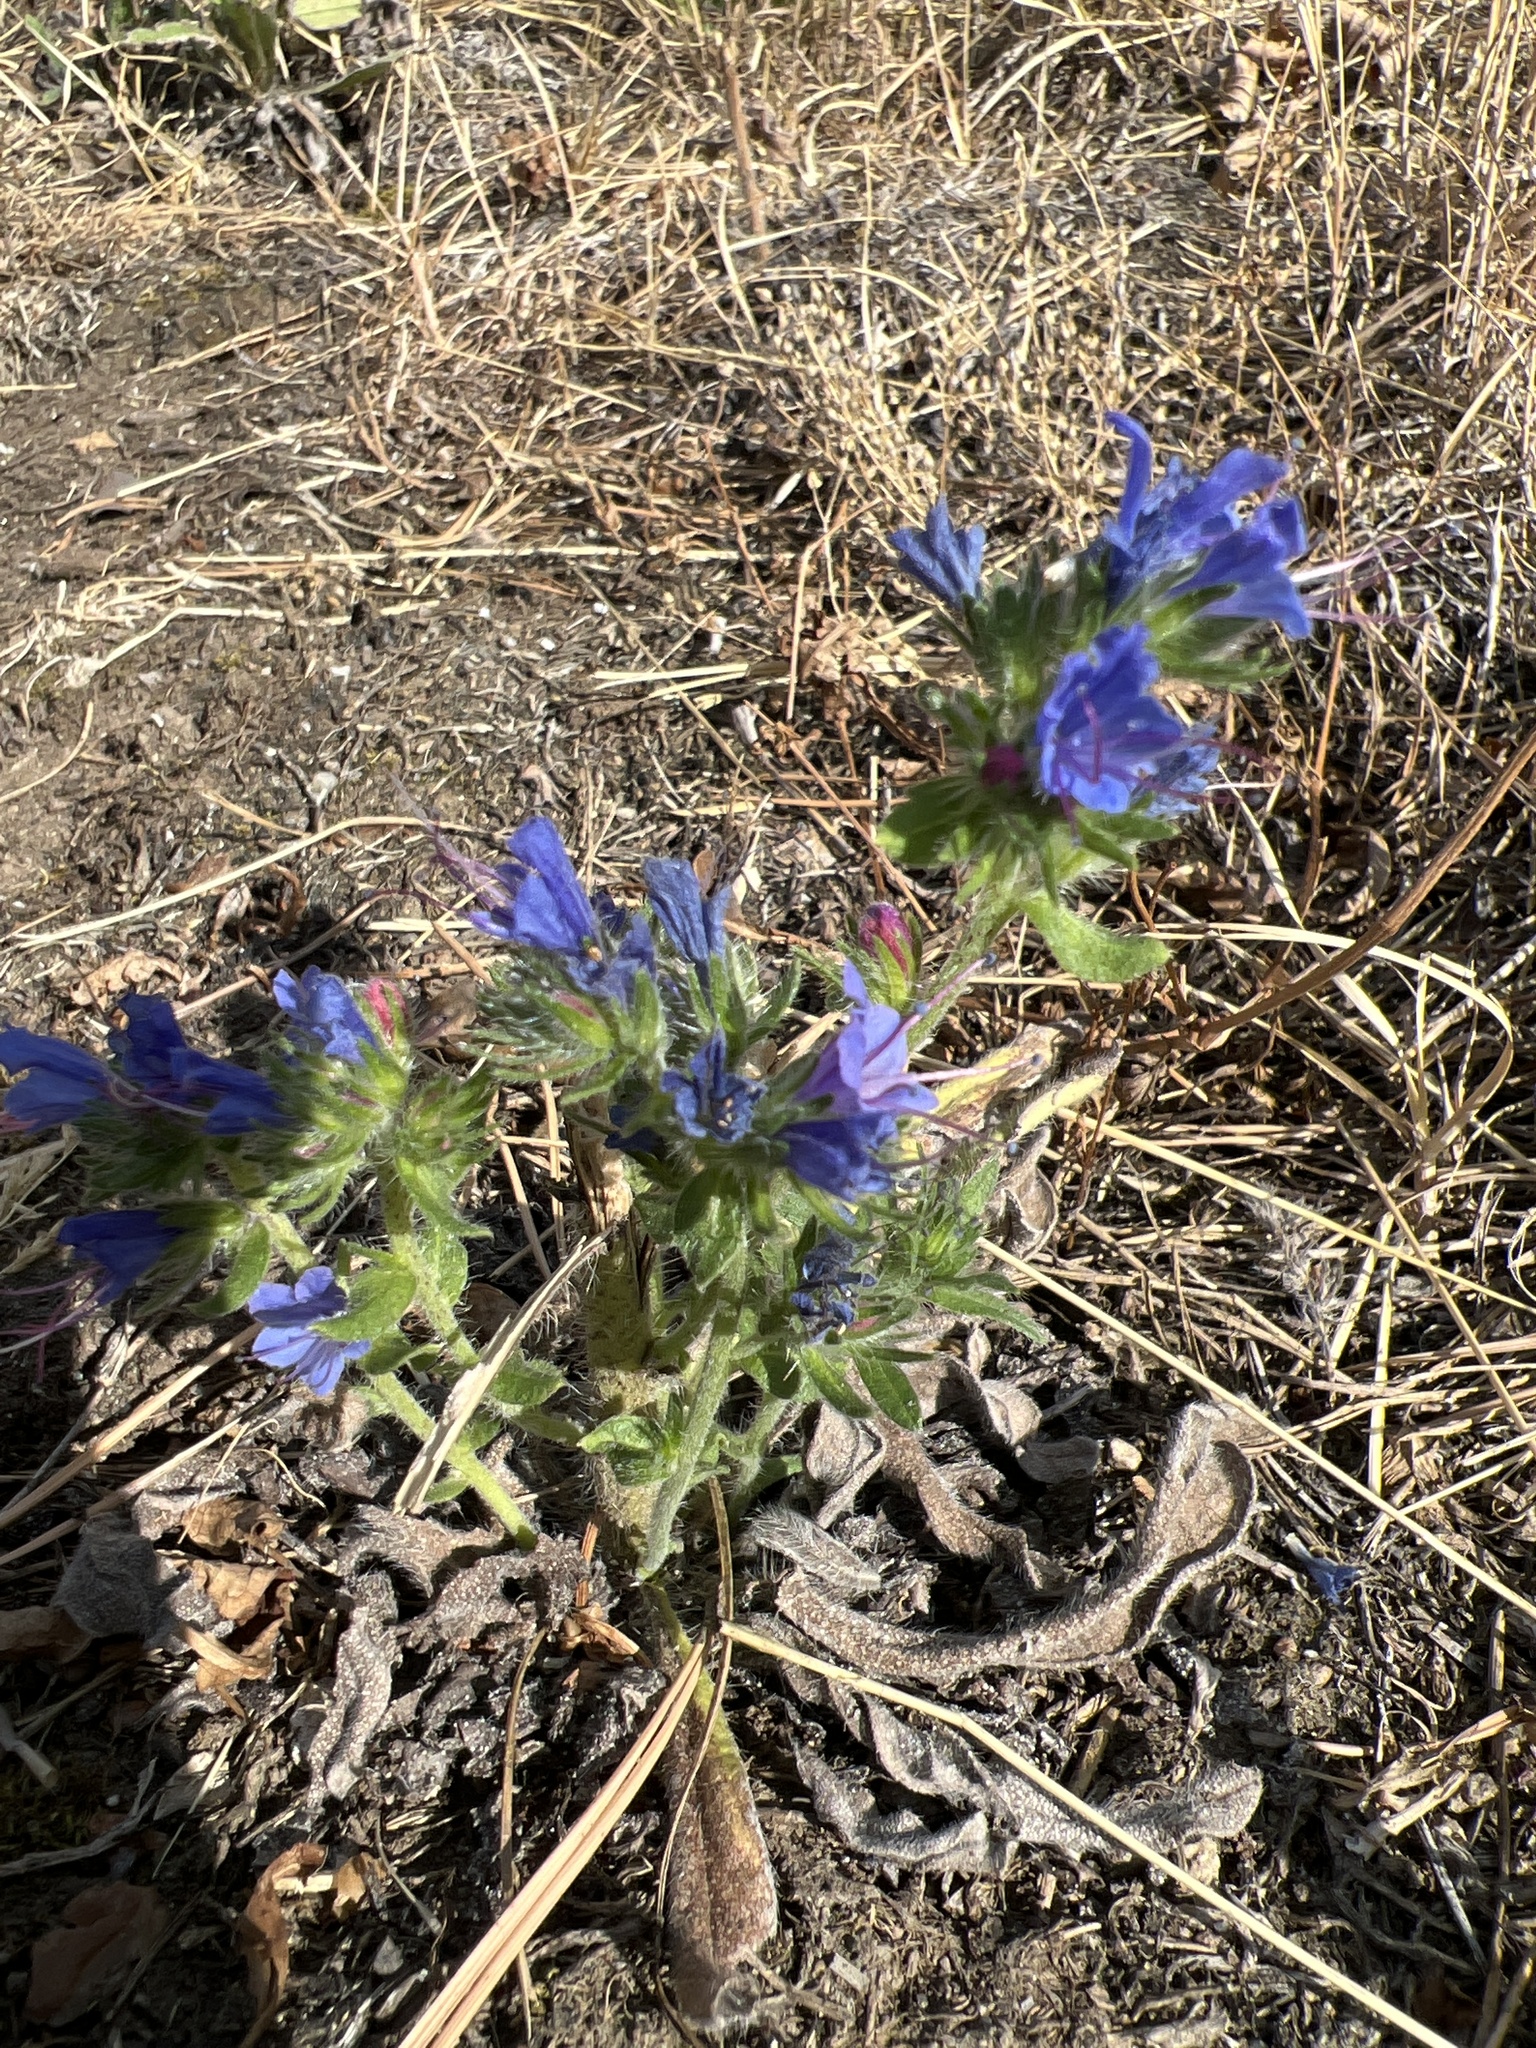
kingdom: Plantae
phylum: Tracheophyta
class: Magnoliopsida
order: Boraginales
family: Boraginaceae
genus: Echium
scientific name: Echium vulgare
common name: Common viper's bugloss
